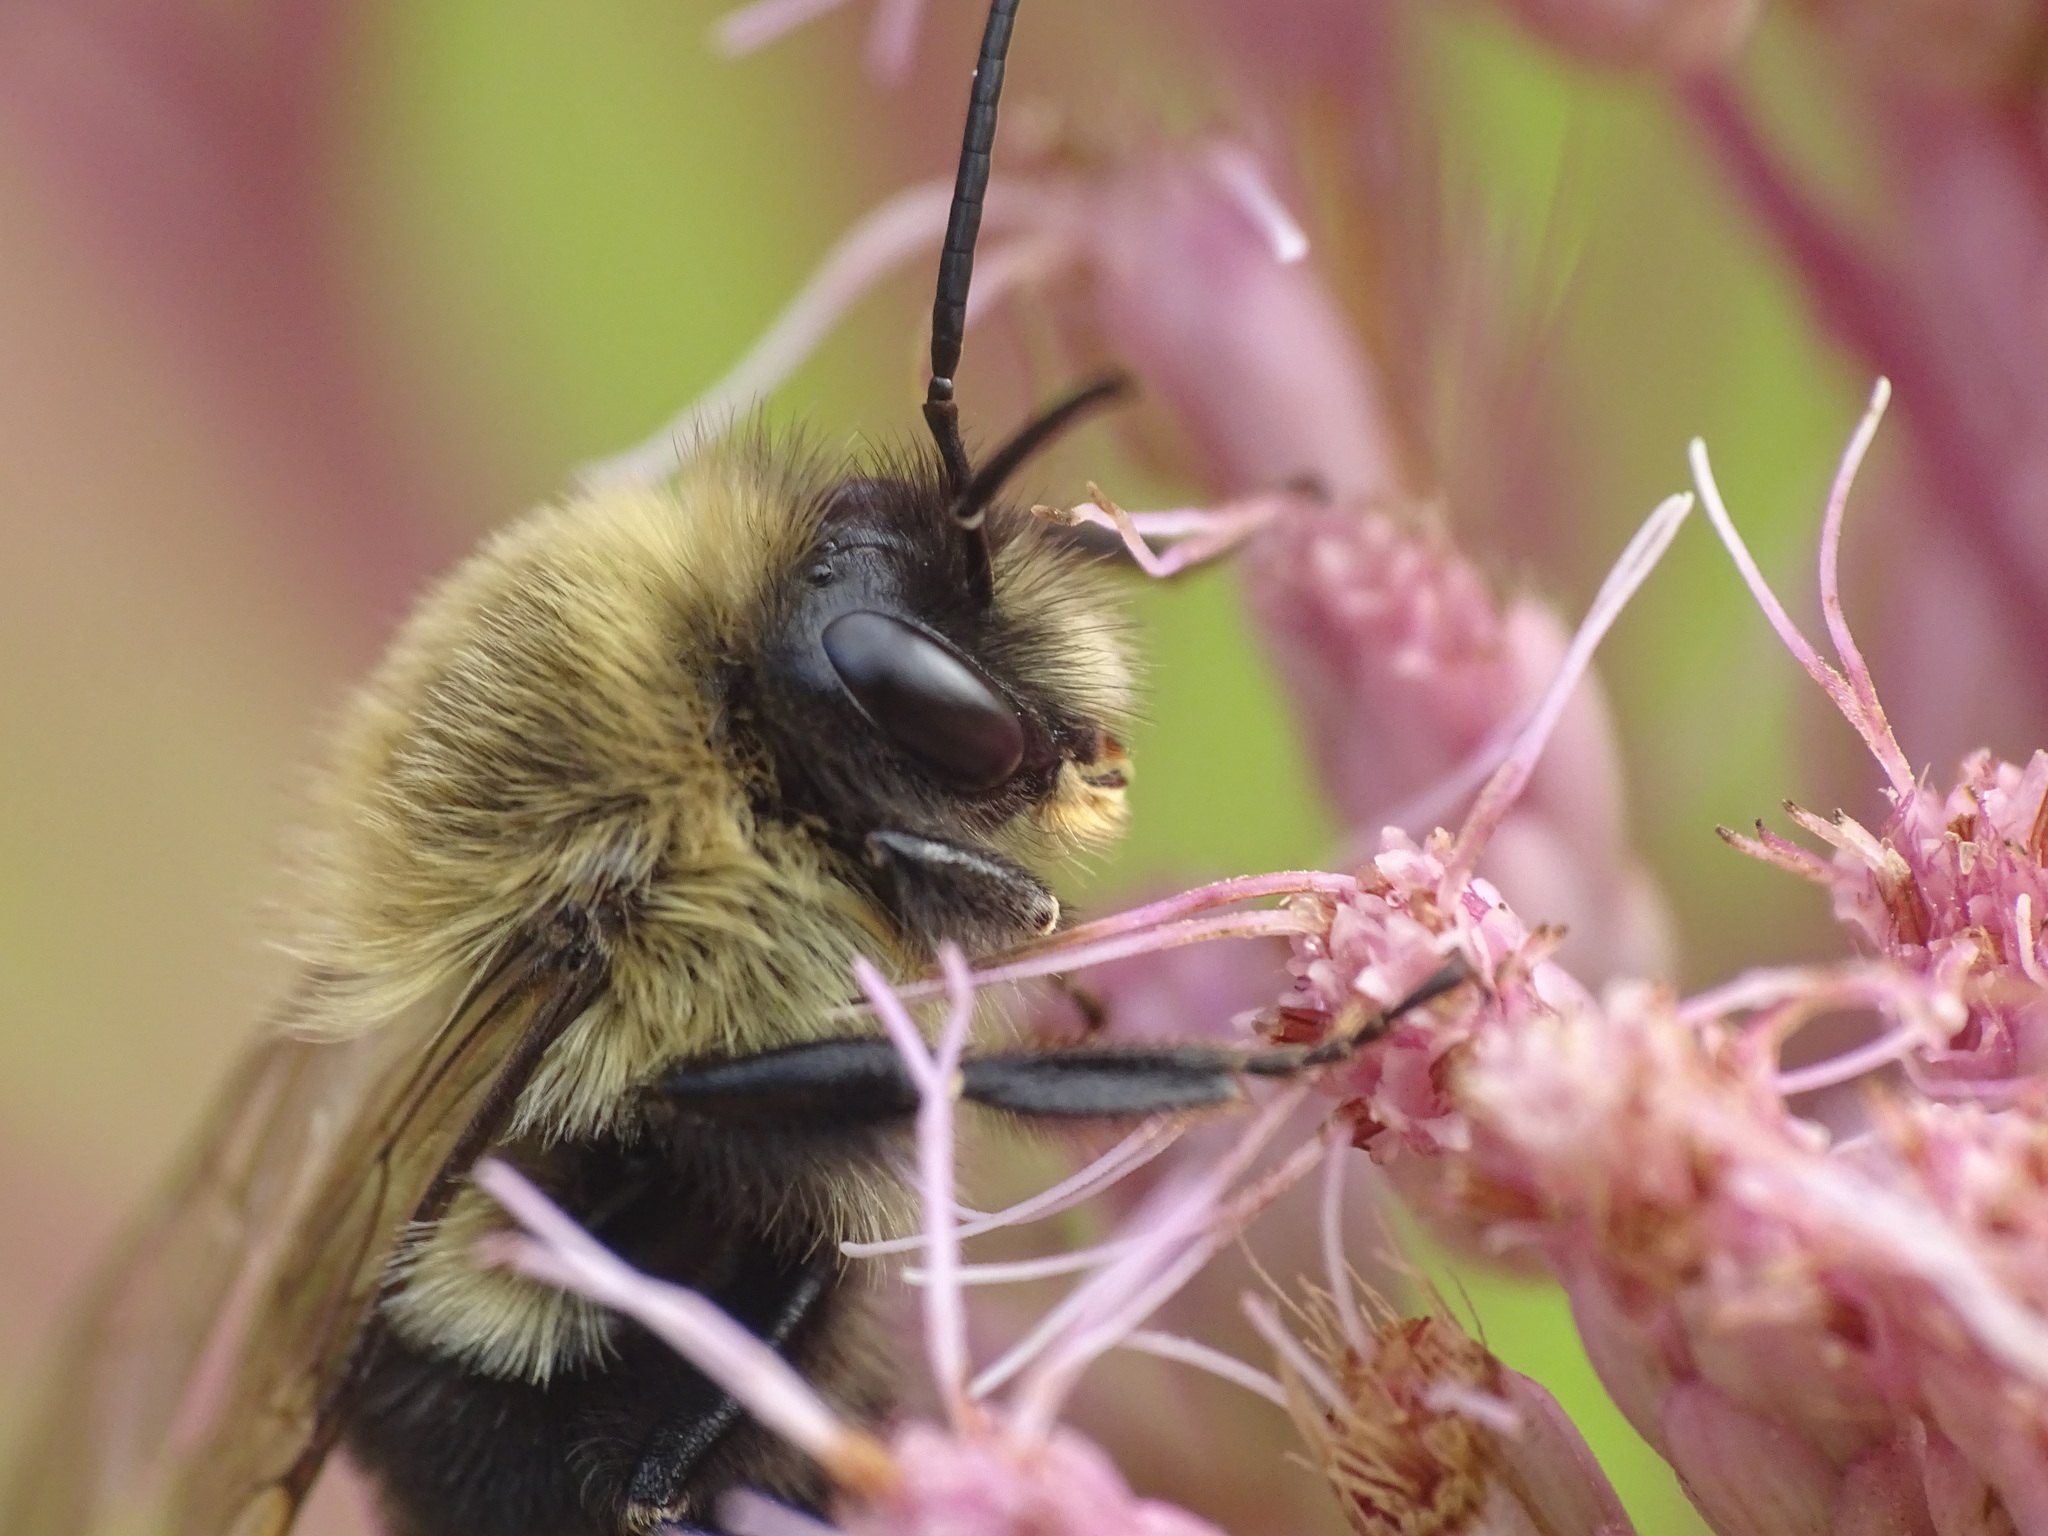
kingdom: Animalia
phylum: Arthropoda
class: Insecta
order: Hymenoptera
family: Apidae
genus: Bombus
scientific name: Bombus impatiens
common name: Common eastern bumble bee
